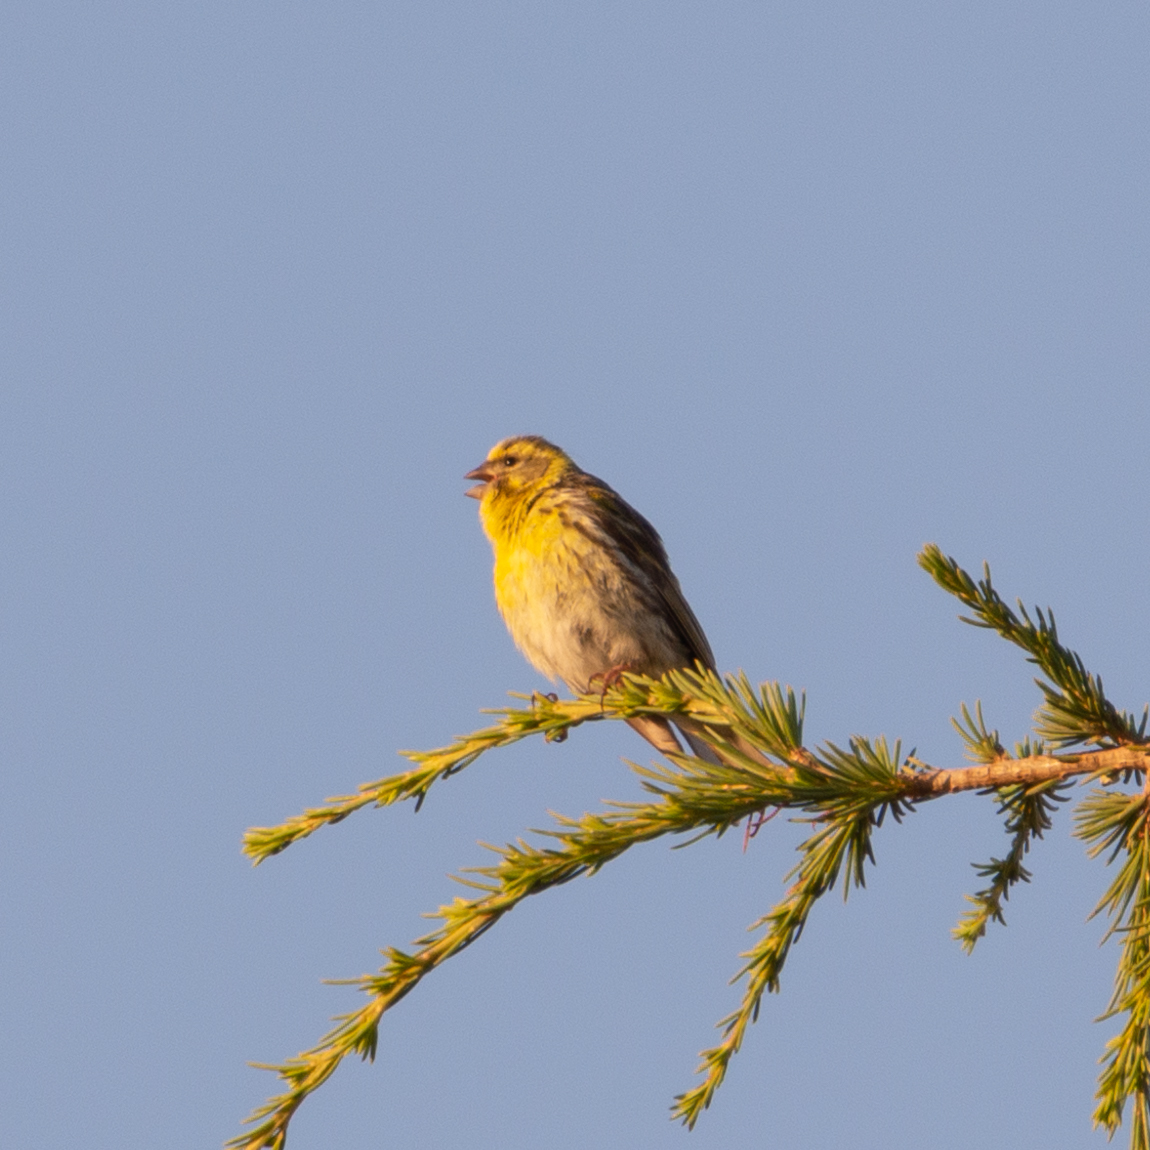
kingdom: Animalia
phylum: Chordata
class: Aves
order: Passeriformes
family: Fringillidae
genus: Serinus
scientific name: Serinus serinus
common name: European serin
